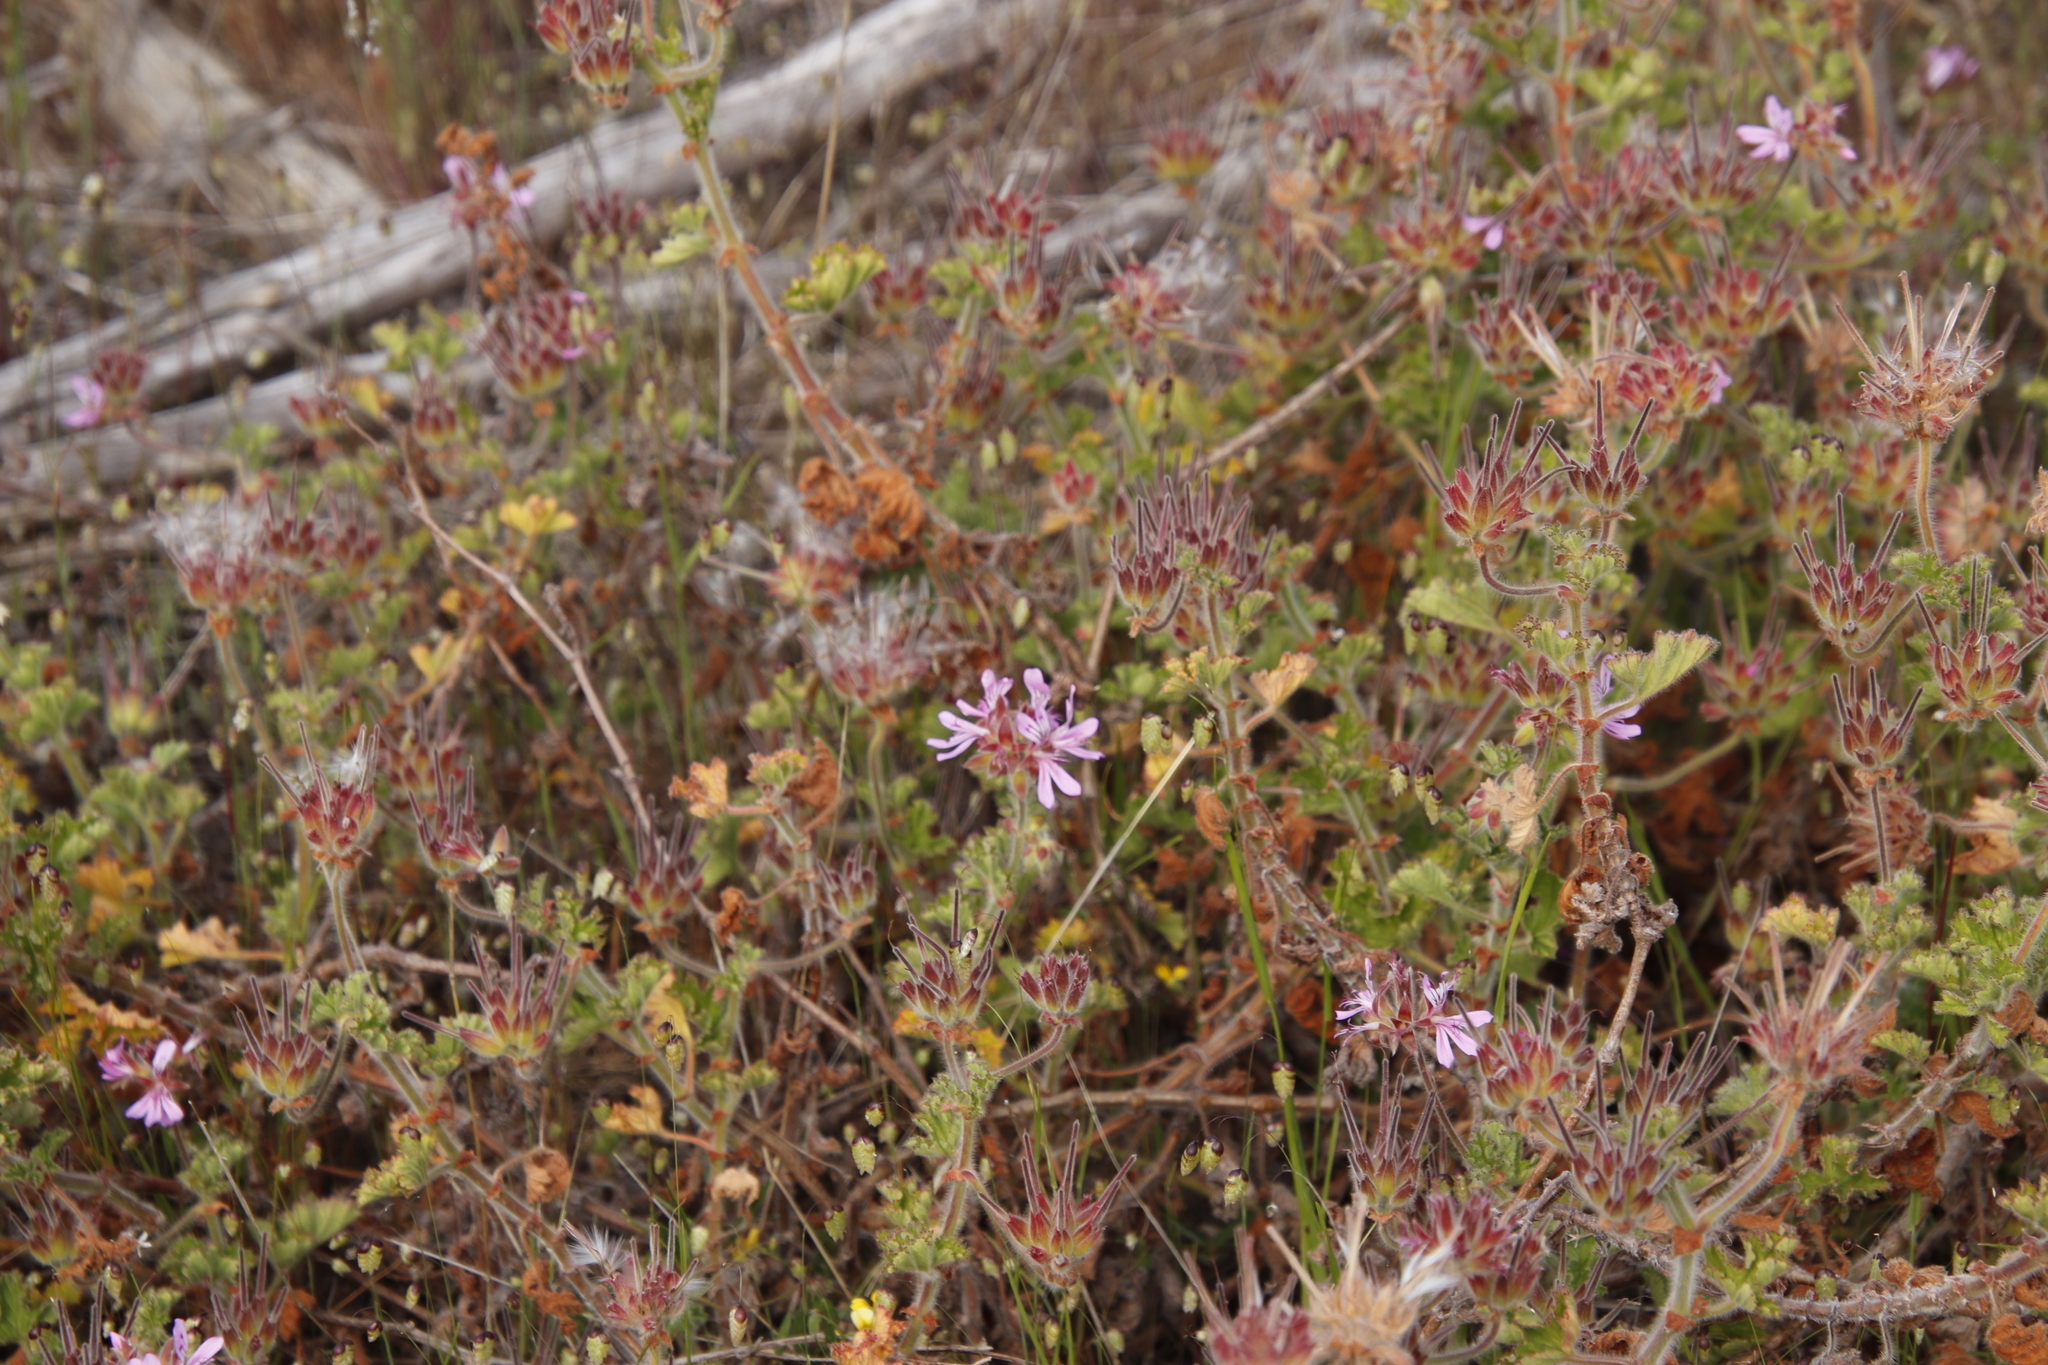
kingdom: Plantae
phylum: Tracheophyta
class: Magnoliopsida
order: Geraniales
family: Geraniaceae
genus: Pelargonium
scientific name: Pelargonium capitatum
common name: Rose scented geranium
